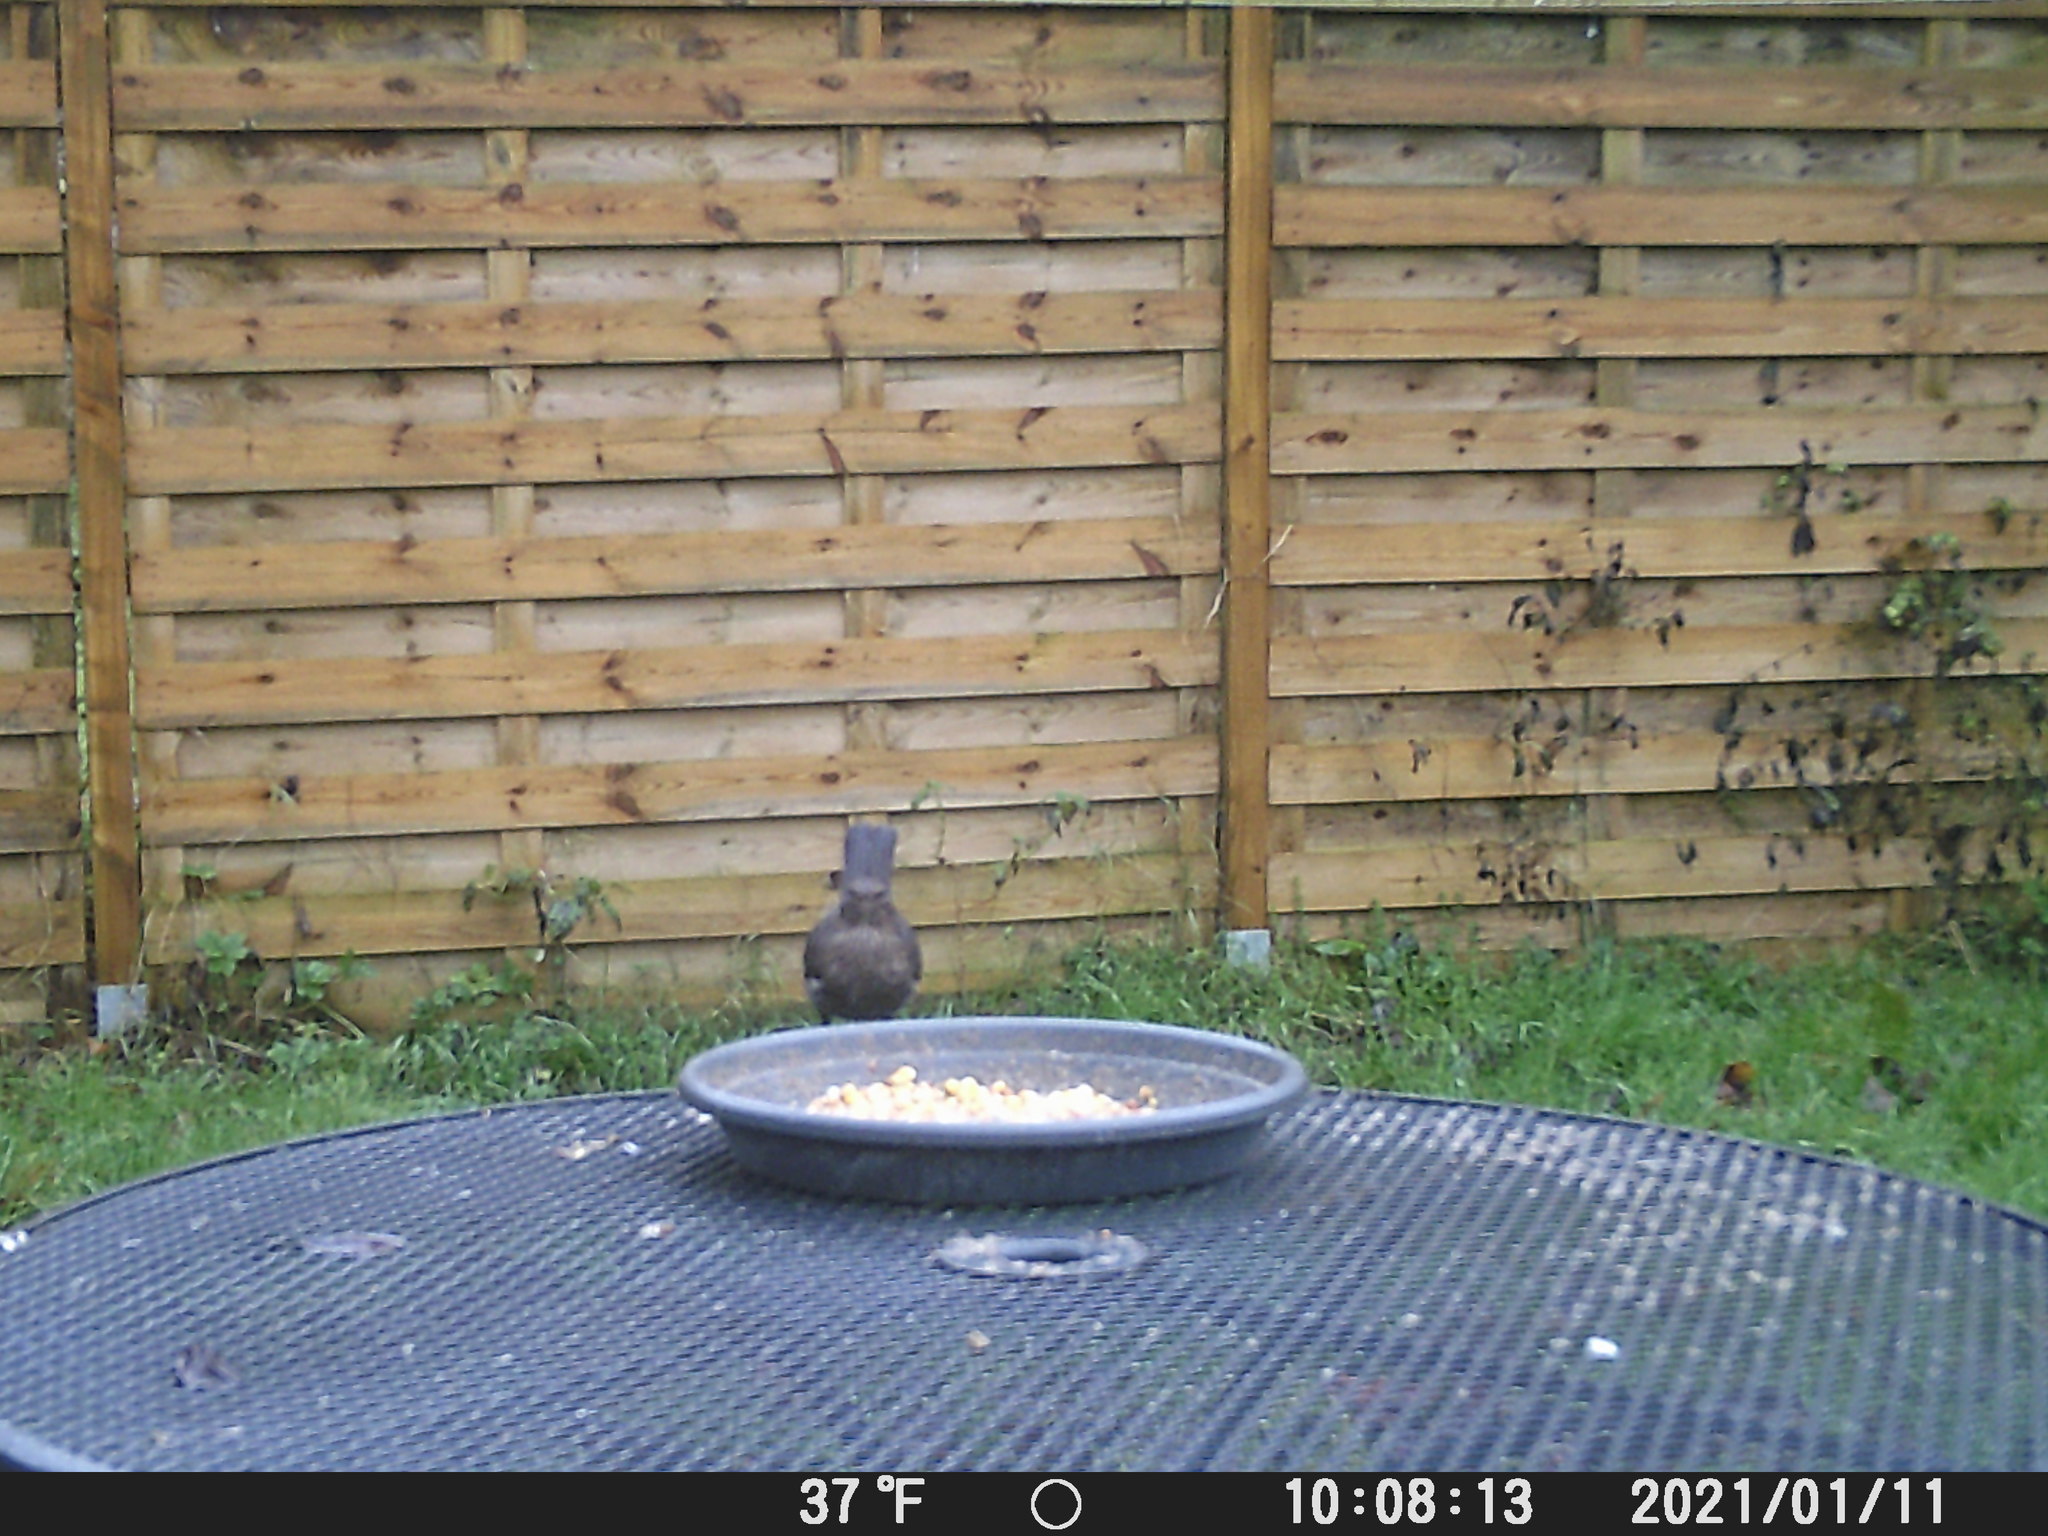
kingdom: Animalia
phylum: Chordata
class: Aves
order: Passeriformes
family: Turdidae
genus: Turdus
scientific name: Turdus merula
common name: Common blackbird
